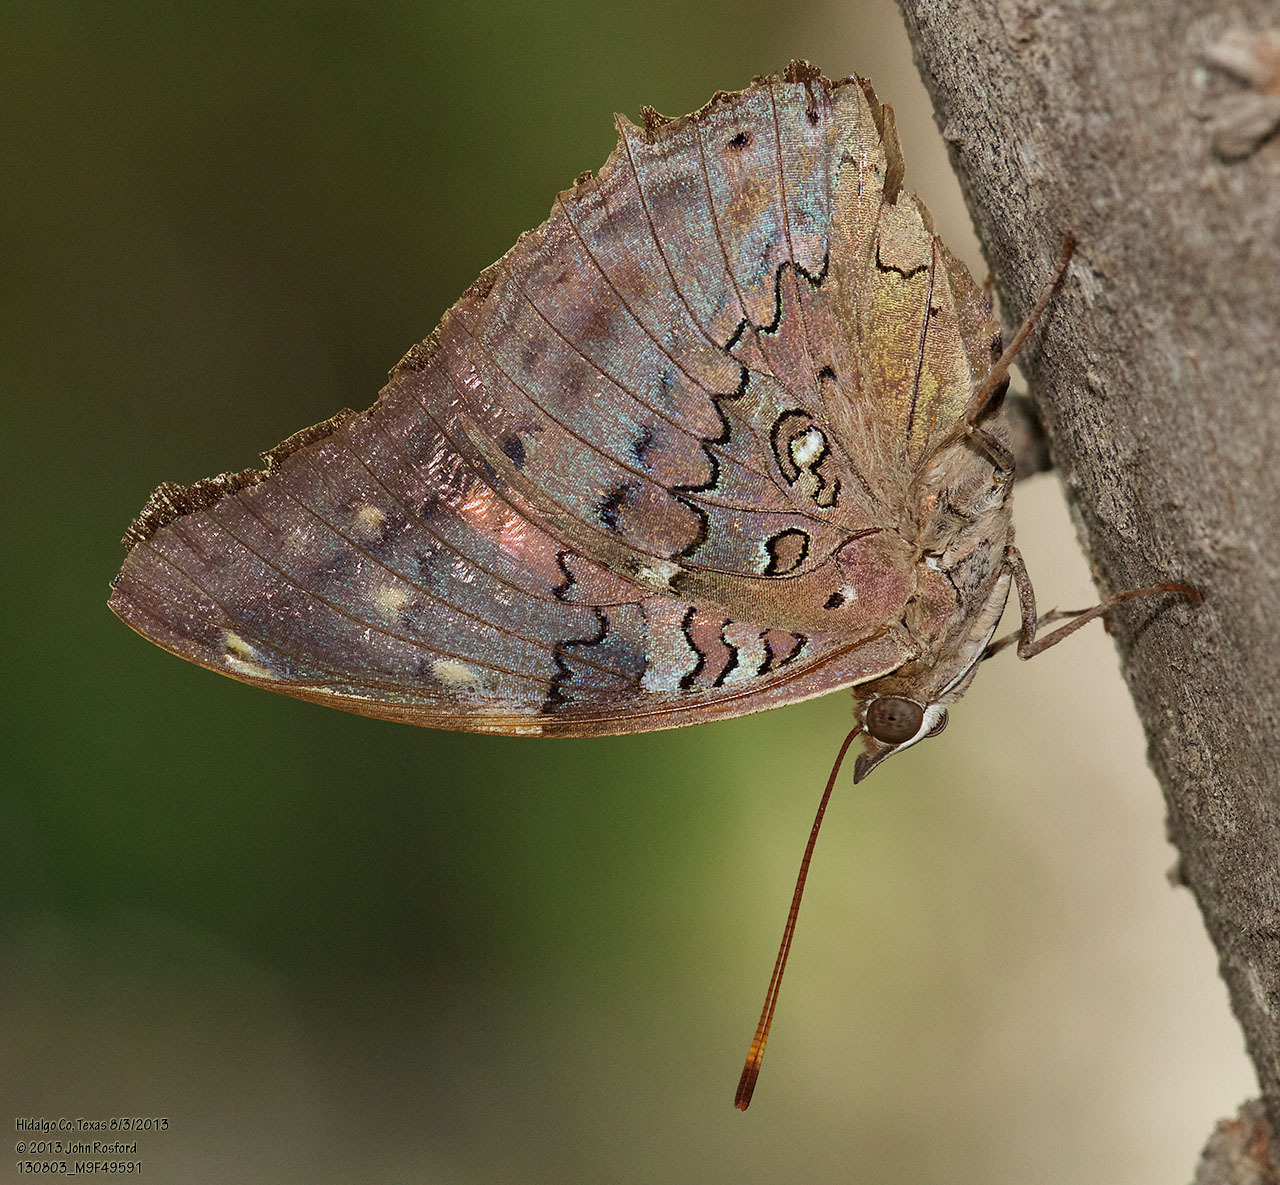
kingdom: Animalia
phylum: Arthropoda
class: Insecta
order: Lepidoptera
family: Nymphalidae
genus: Coea
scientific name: Coea acheronta
